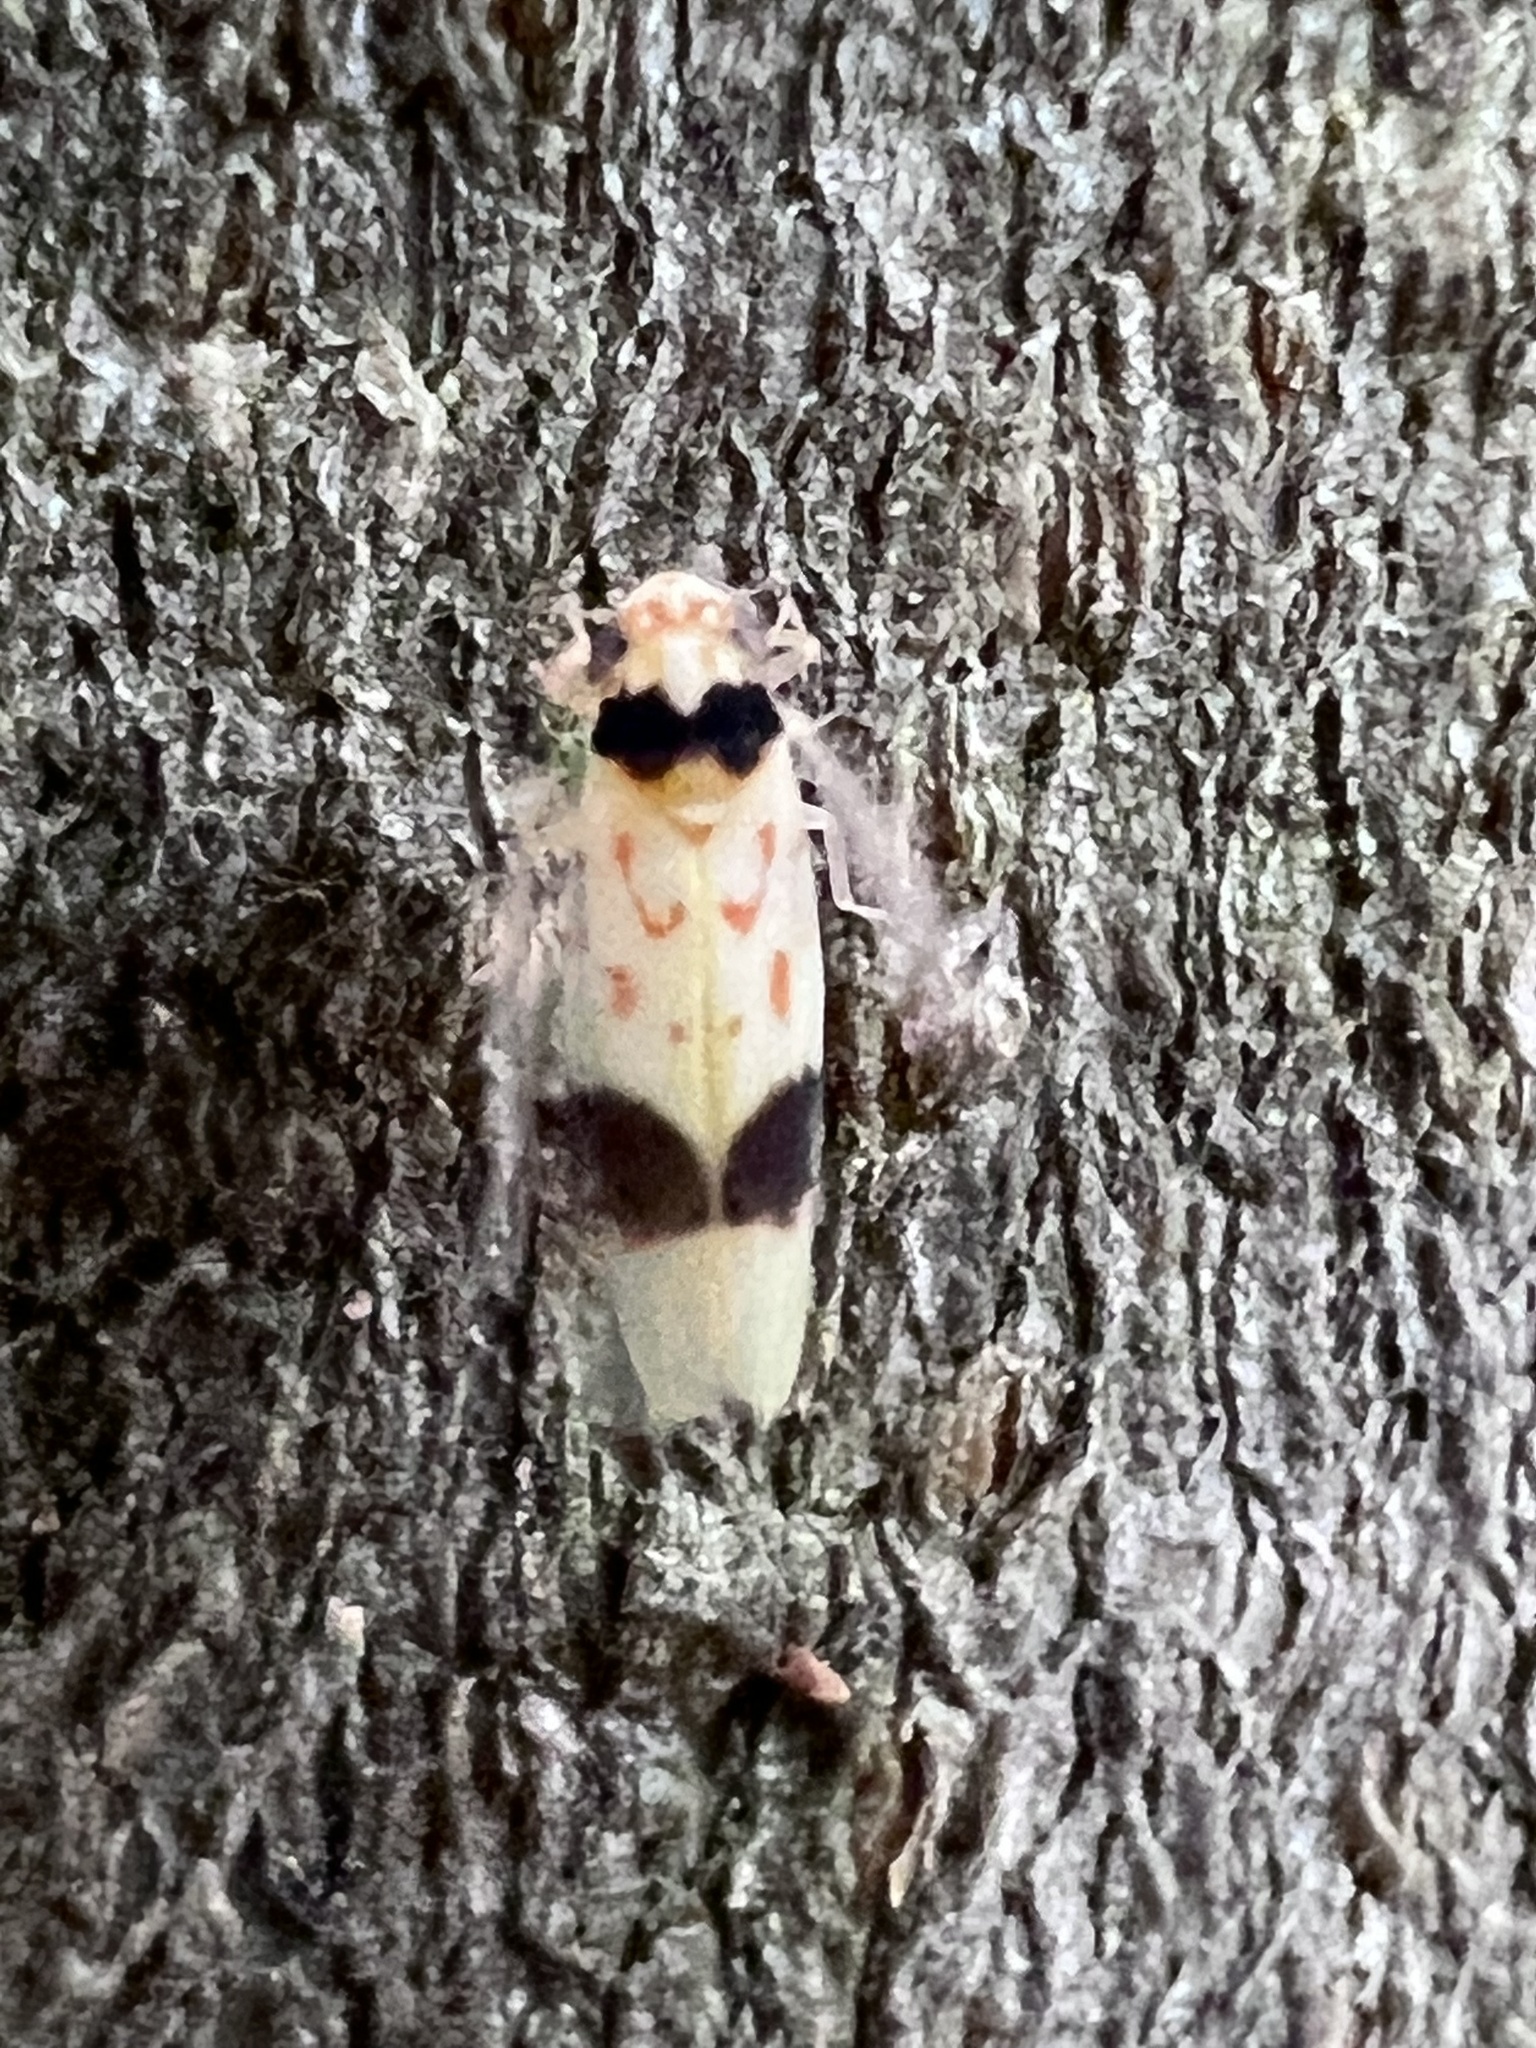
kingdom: Animalia
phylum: Arthropoda
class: Insecta
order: Hemiptera
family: Cicadellidae
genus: Eratoneura
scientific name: Eratoneura morgani
